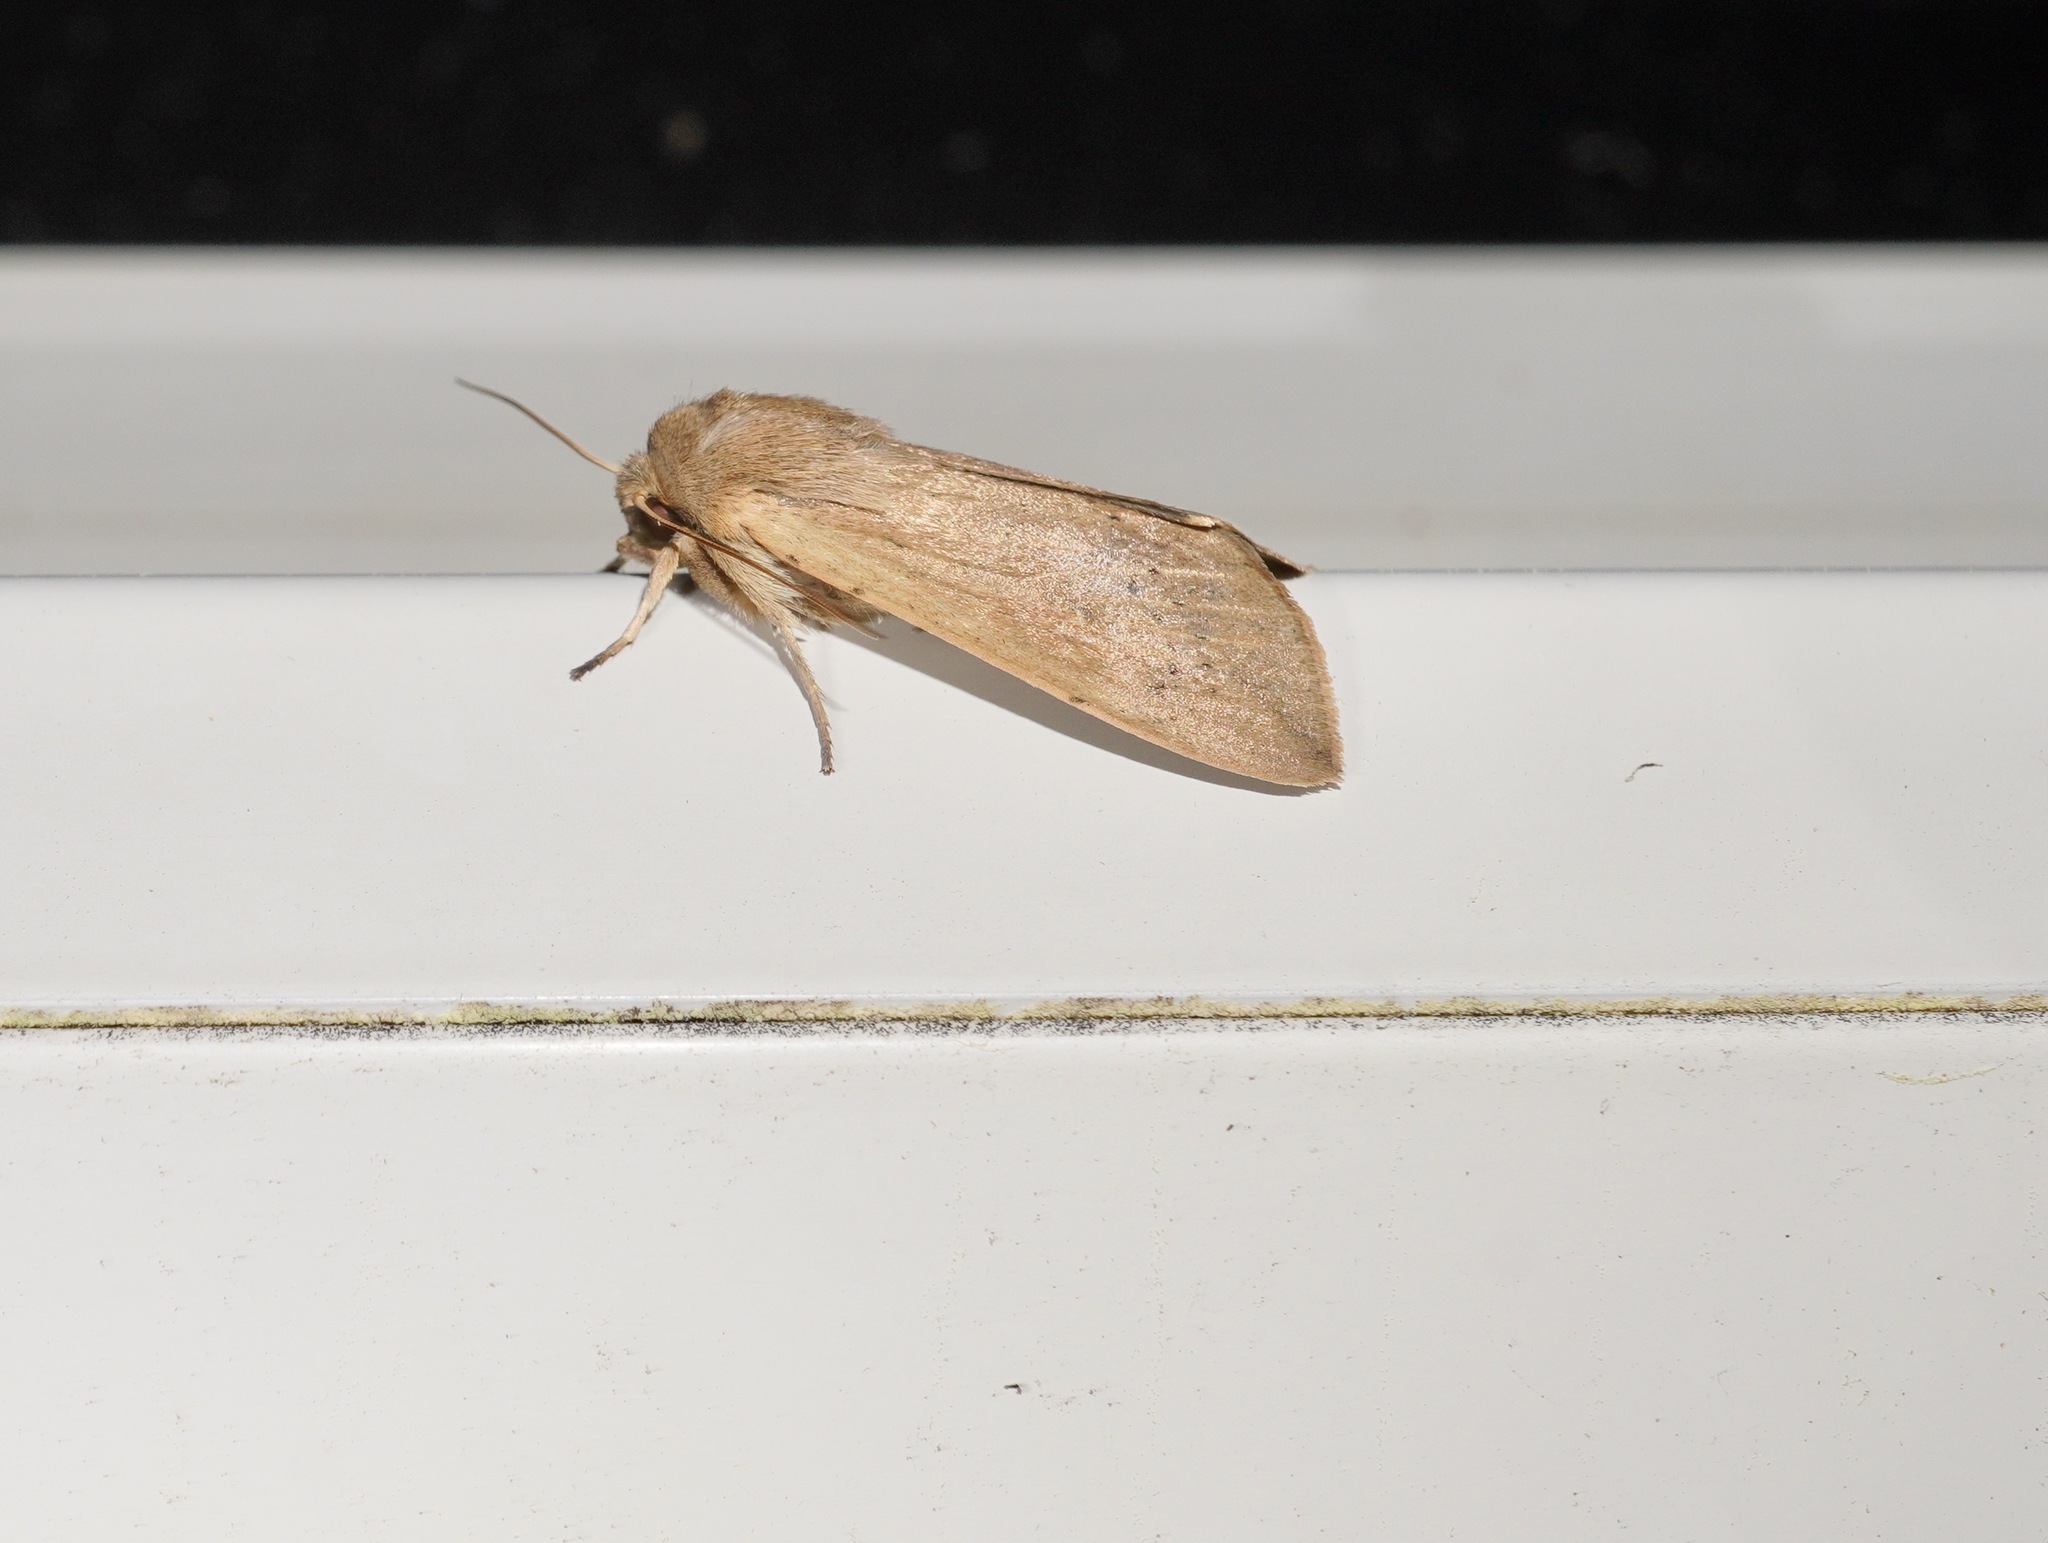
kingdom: Animalia
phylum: Arthropoda
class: Insecta
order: Lepidoptera
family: Noctuidae
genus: Mythimna
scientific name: Mythimna separata
